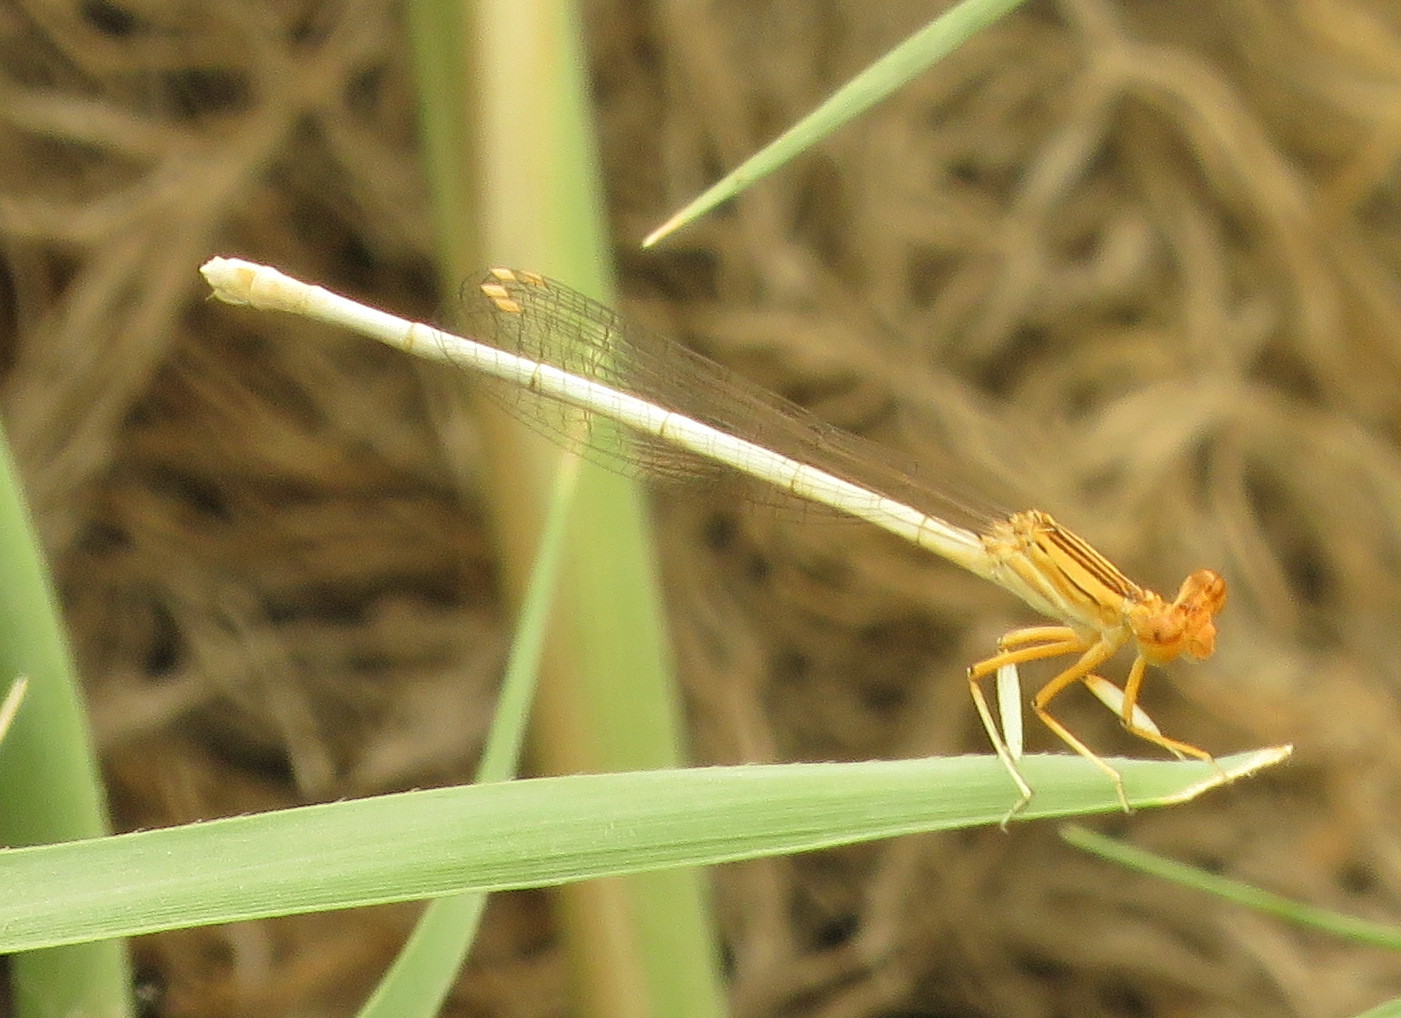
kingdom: Animalia
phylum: Arthropoda
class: Insecta
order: Odonata
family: Platycnemididae
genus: Platycnemis
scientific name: Platycnemis dealbata
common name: Ivory featherleg
